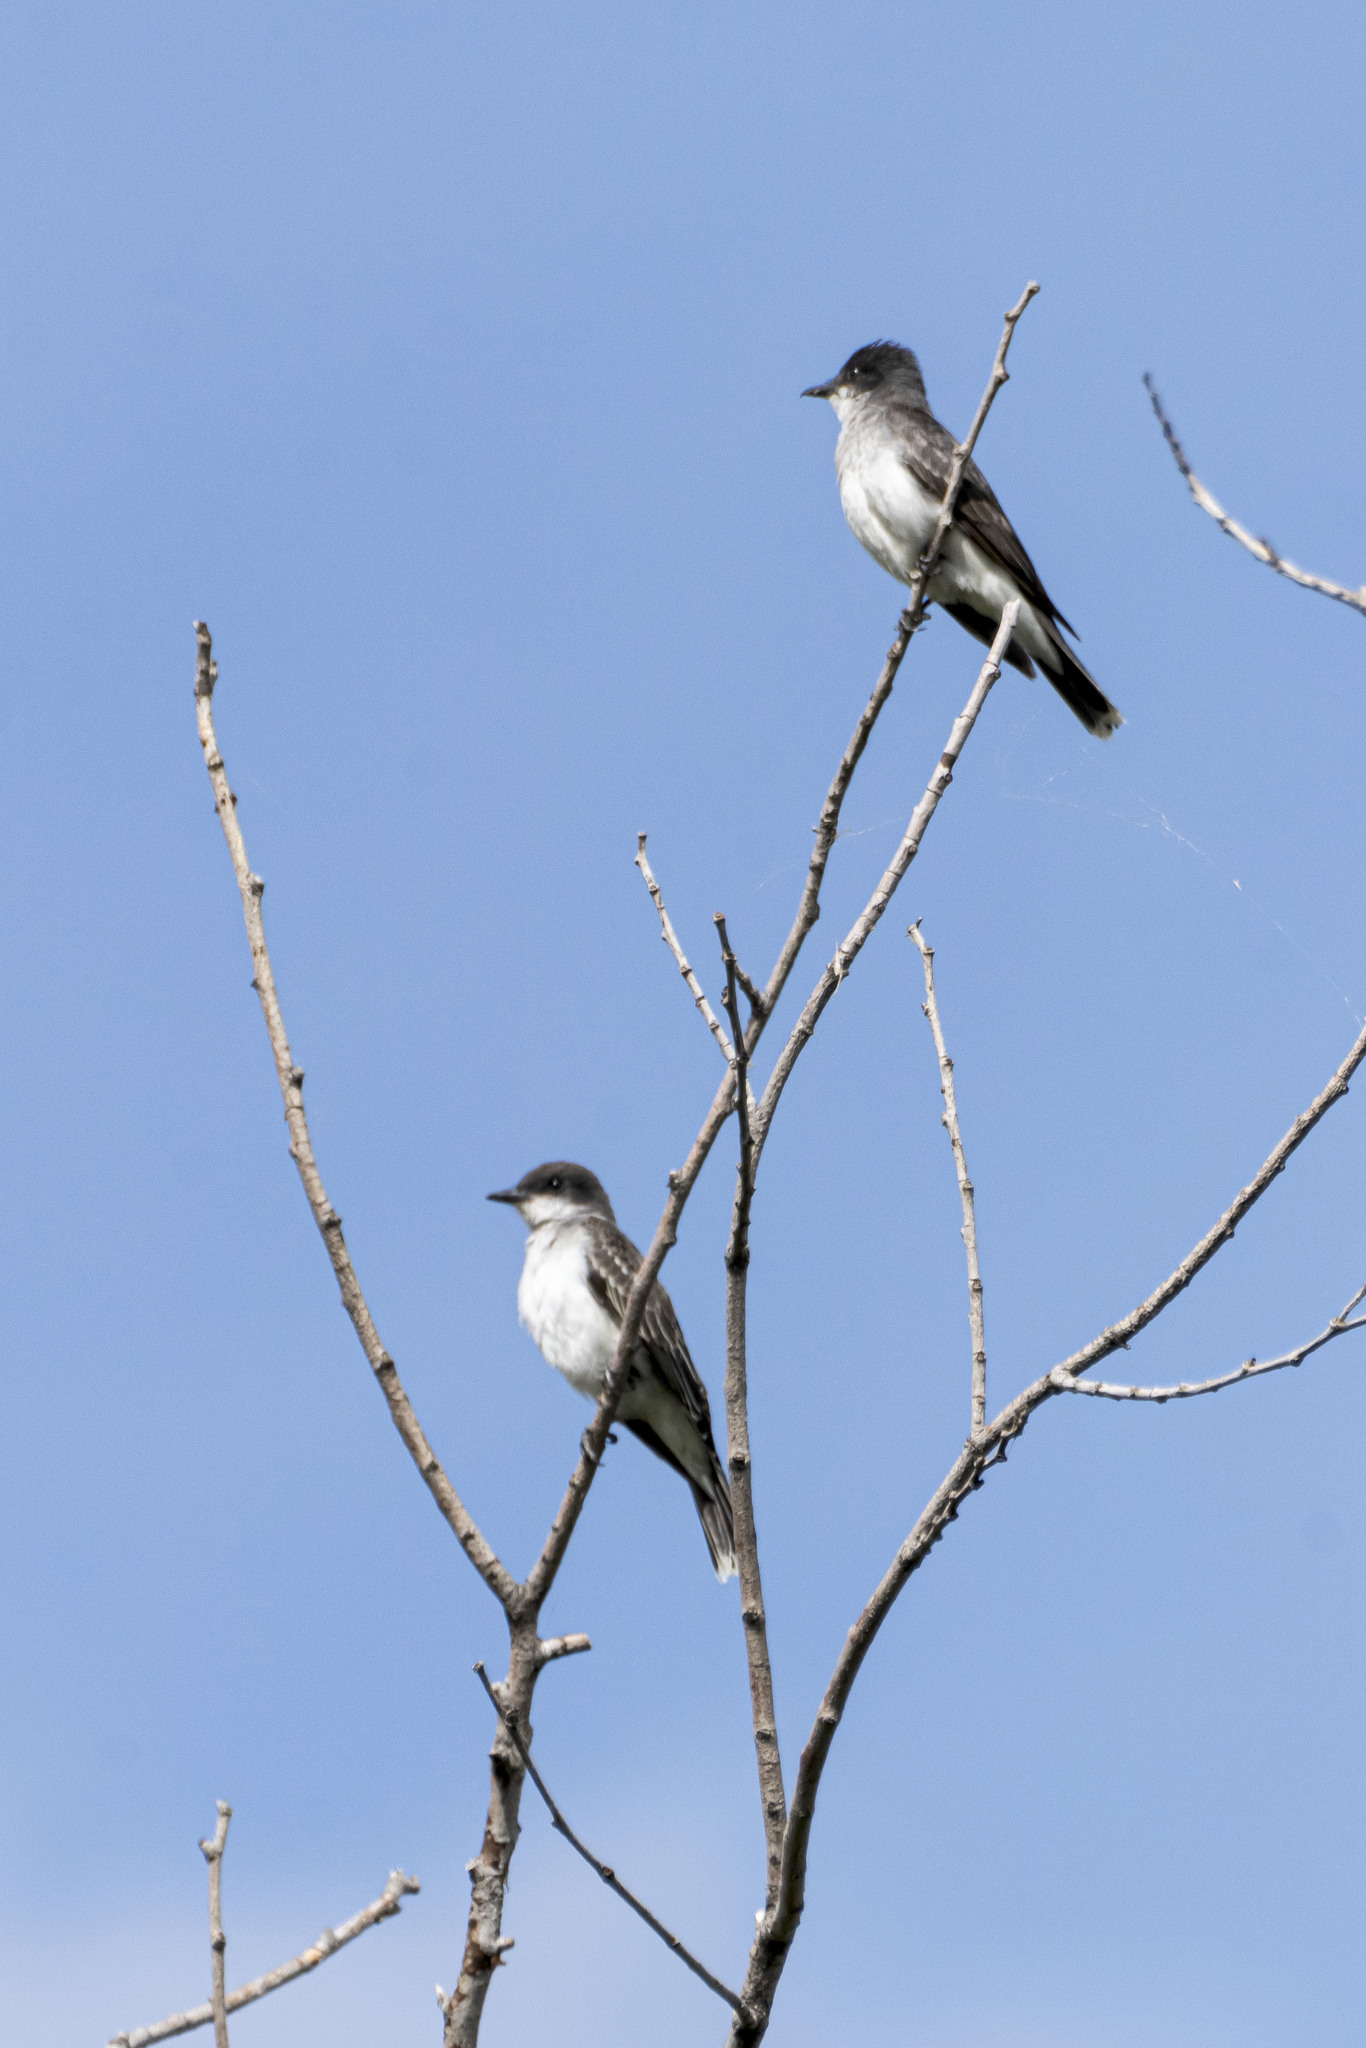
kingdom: Animalia
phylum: Chordata
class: Aves
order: Passeriformes
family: Tyrannidae
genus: Tyrannus
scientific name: Tyrannus tyrannus
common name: Eastern kingbird
